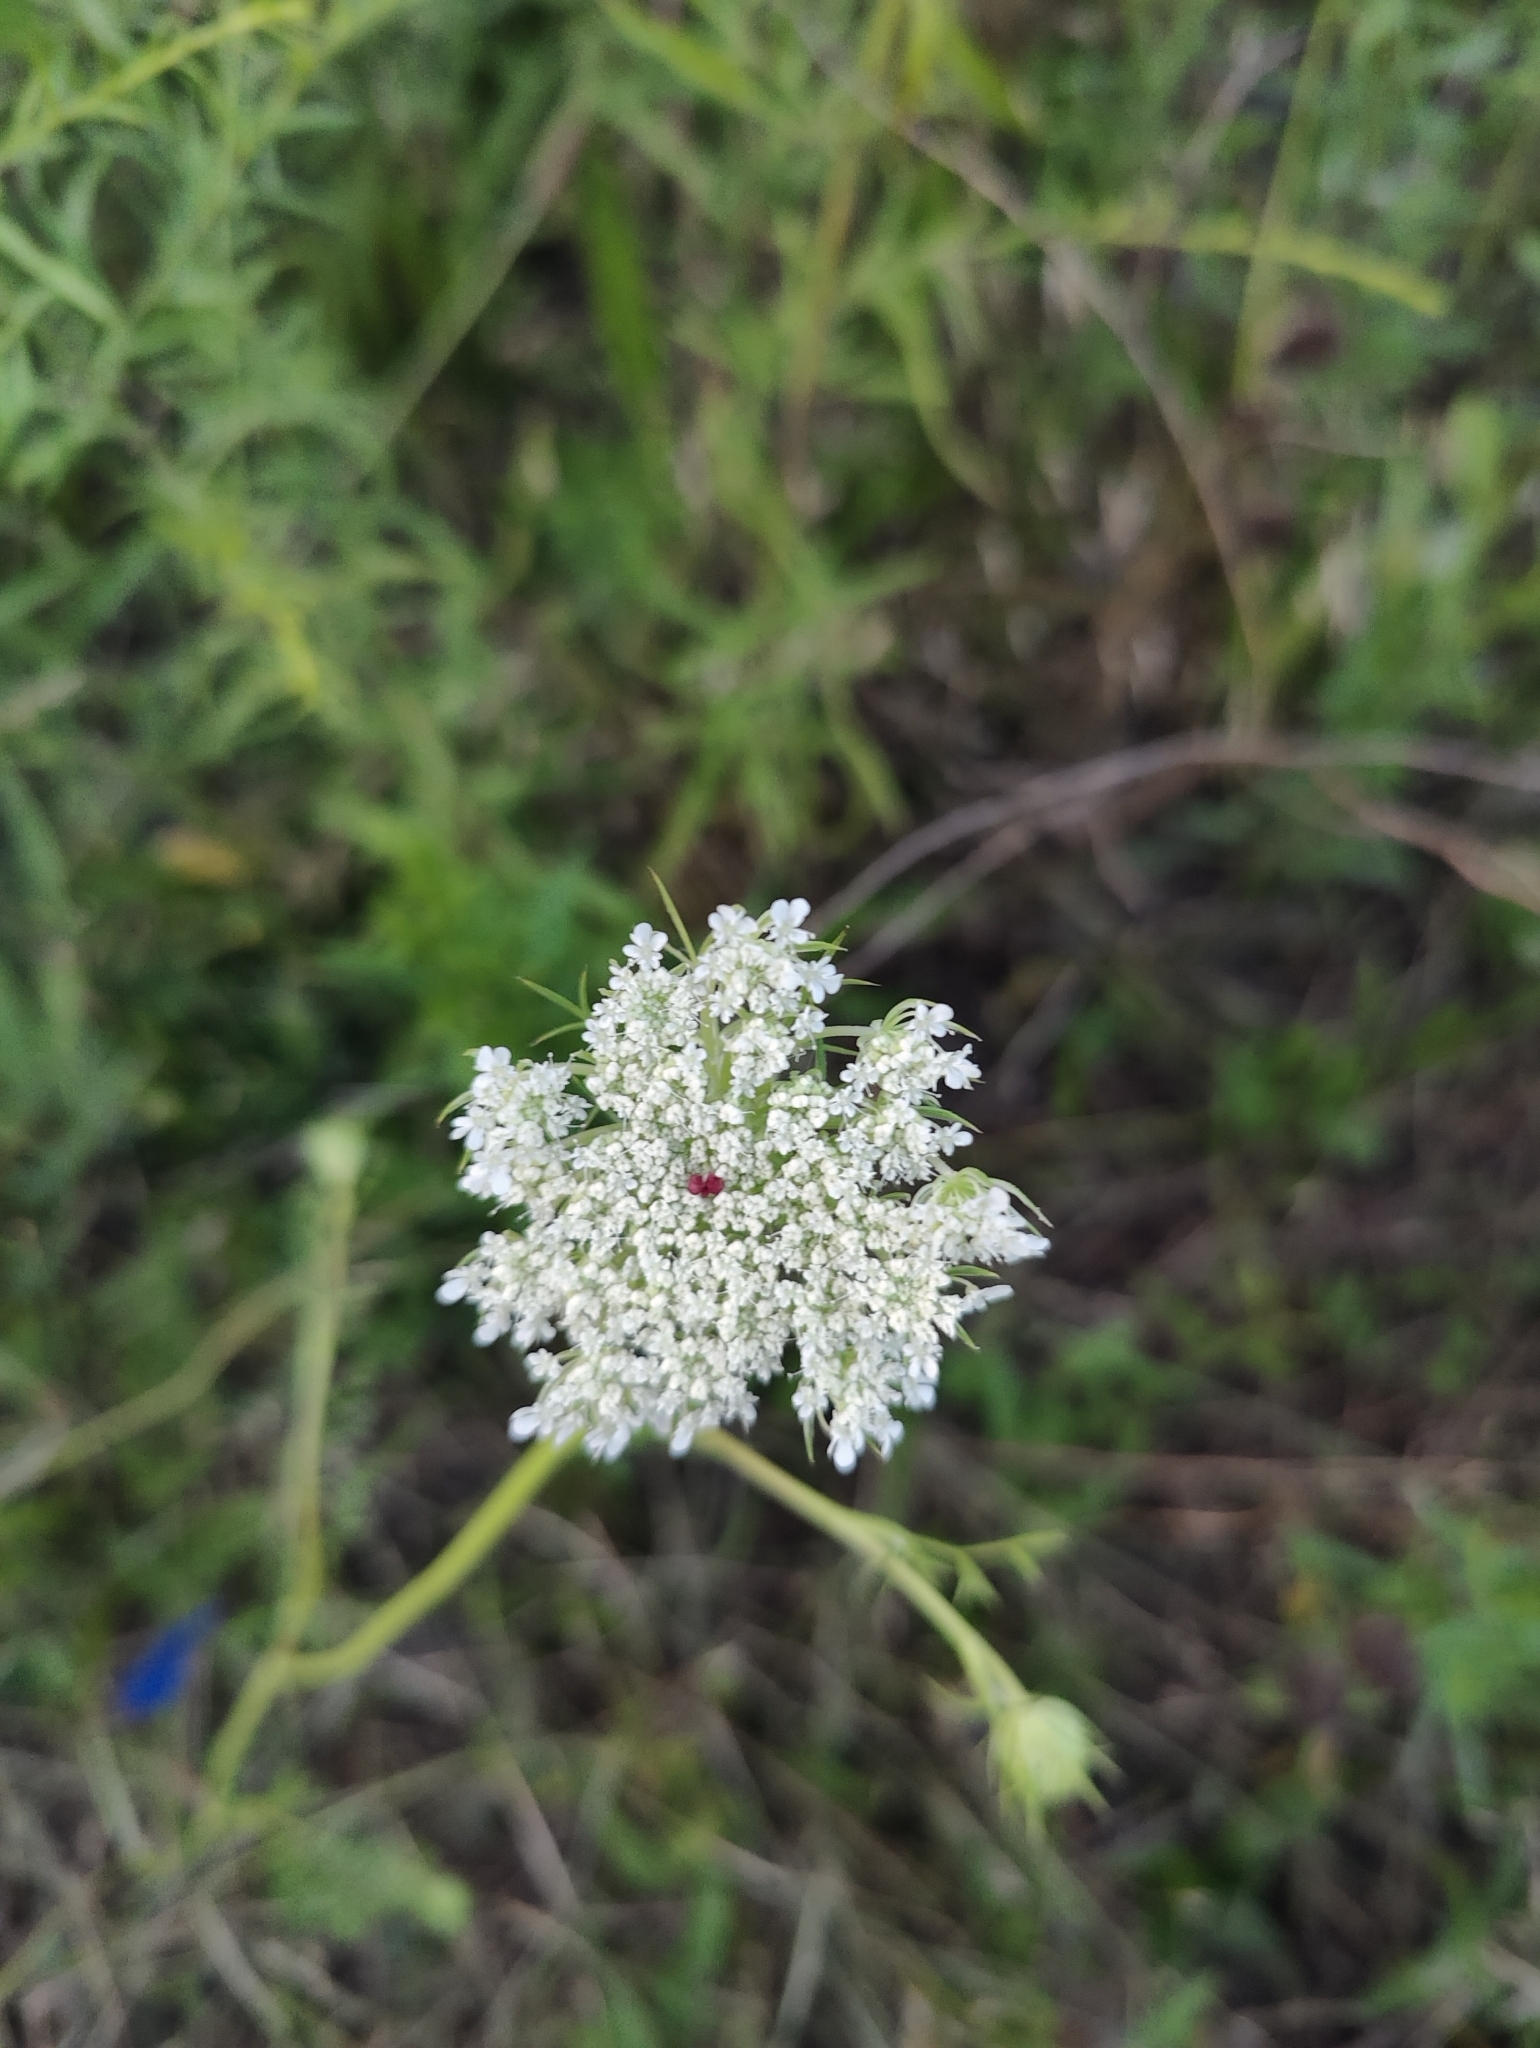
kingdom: Plantae
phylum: Tracheophyta
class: Magnoliopsida
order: Apiales
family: Apiaceae
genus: Daucus
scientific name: Daucus carota
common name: Wild carrot
